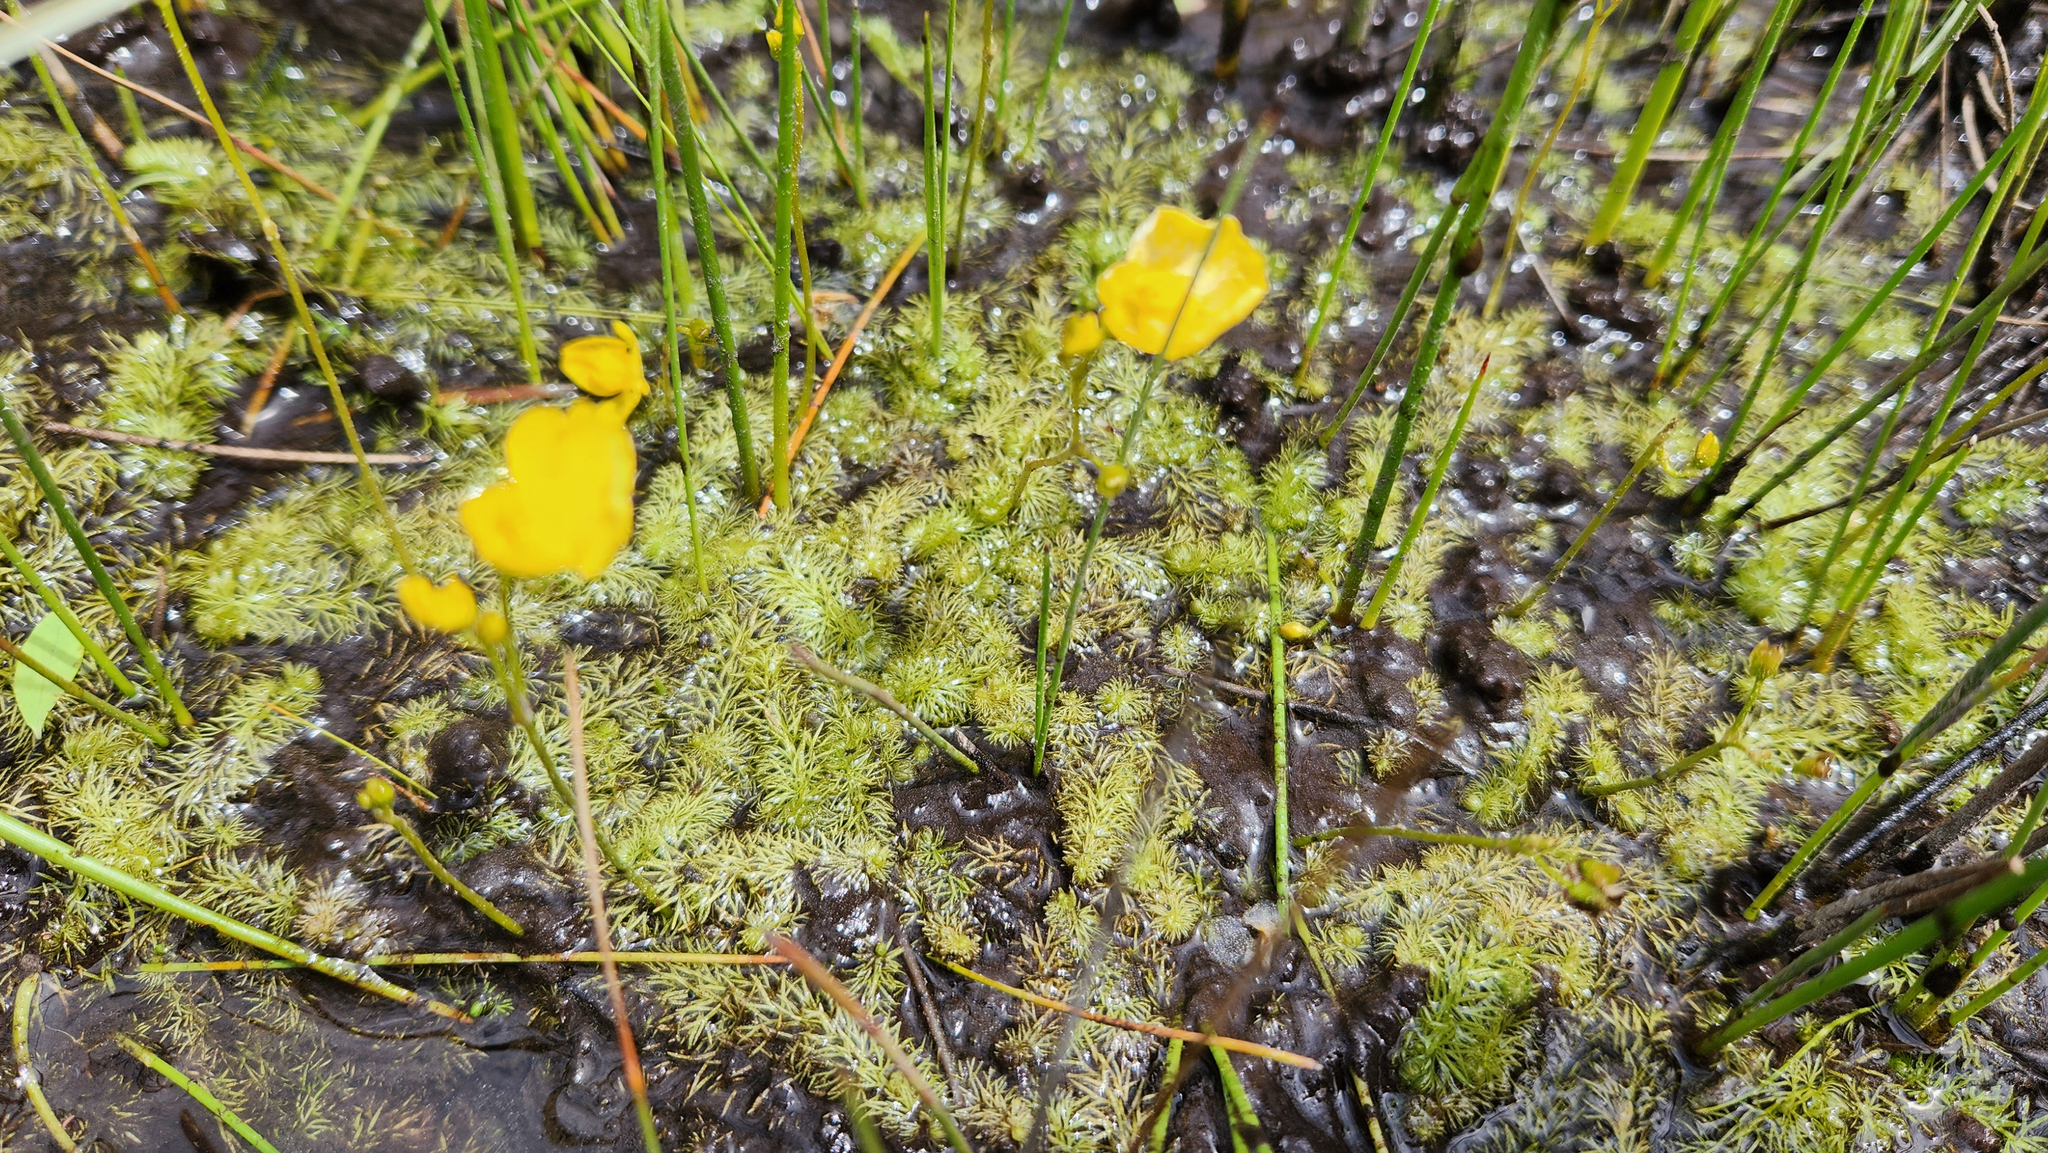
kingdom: Plantae
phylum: Tracheophyta
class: Magnoliopsida
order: Lamiales
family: Lentibulariaceae
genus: Utricularia
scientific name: Utricularia intermedia
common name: Intermediate bladderwort
